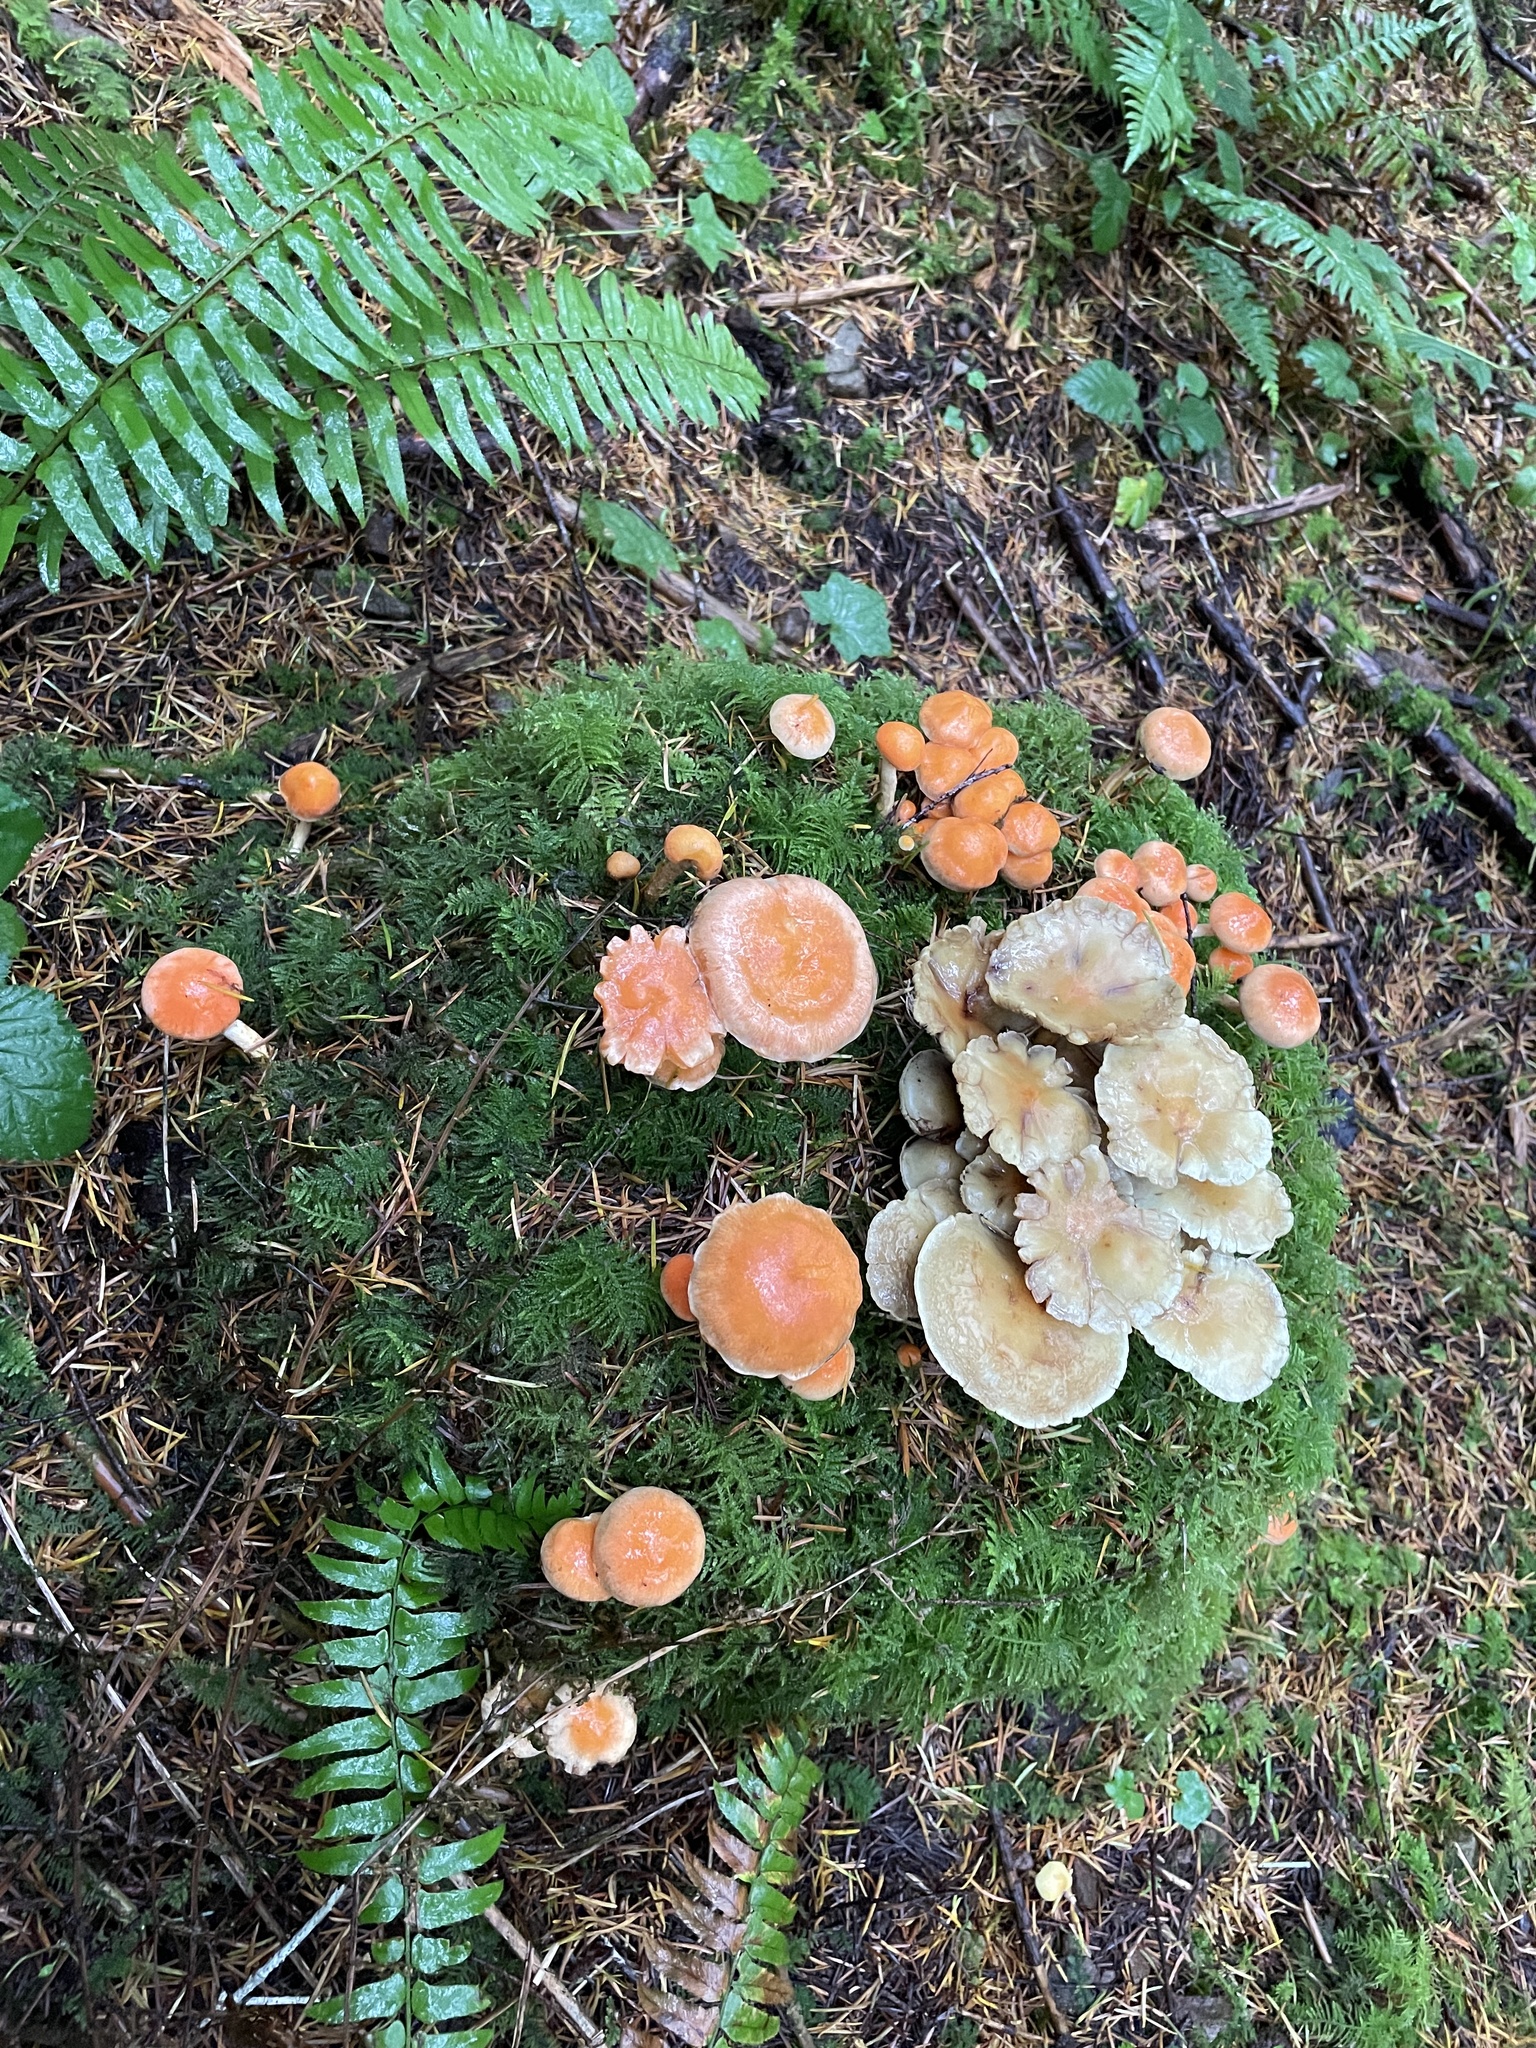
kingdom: Fungi
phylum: Basidiomycota
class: Agaricomycetes
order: Agaricales
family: Strophariaceae
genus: Pyrrhulomyces
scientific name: Pyrrhulomyces astragalinus
